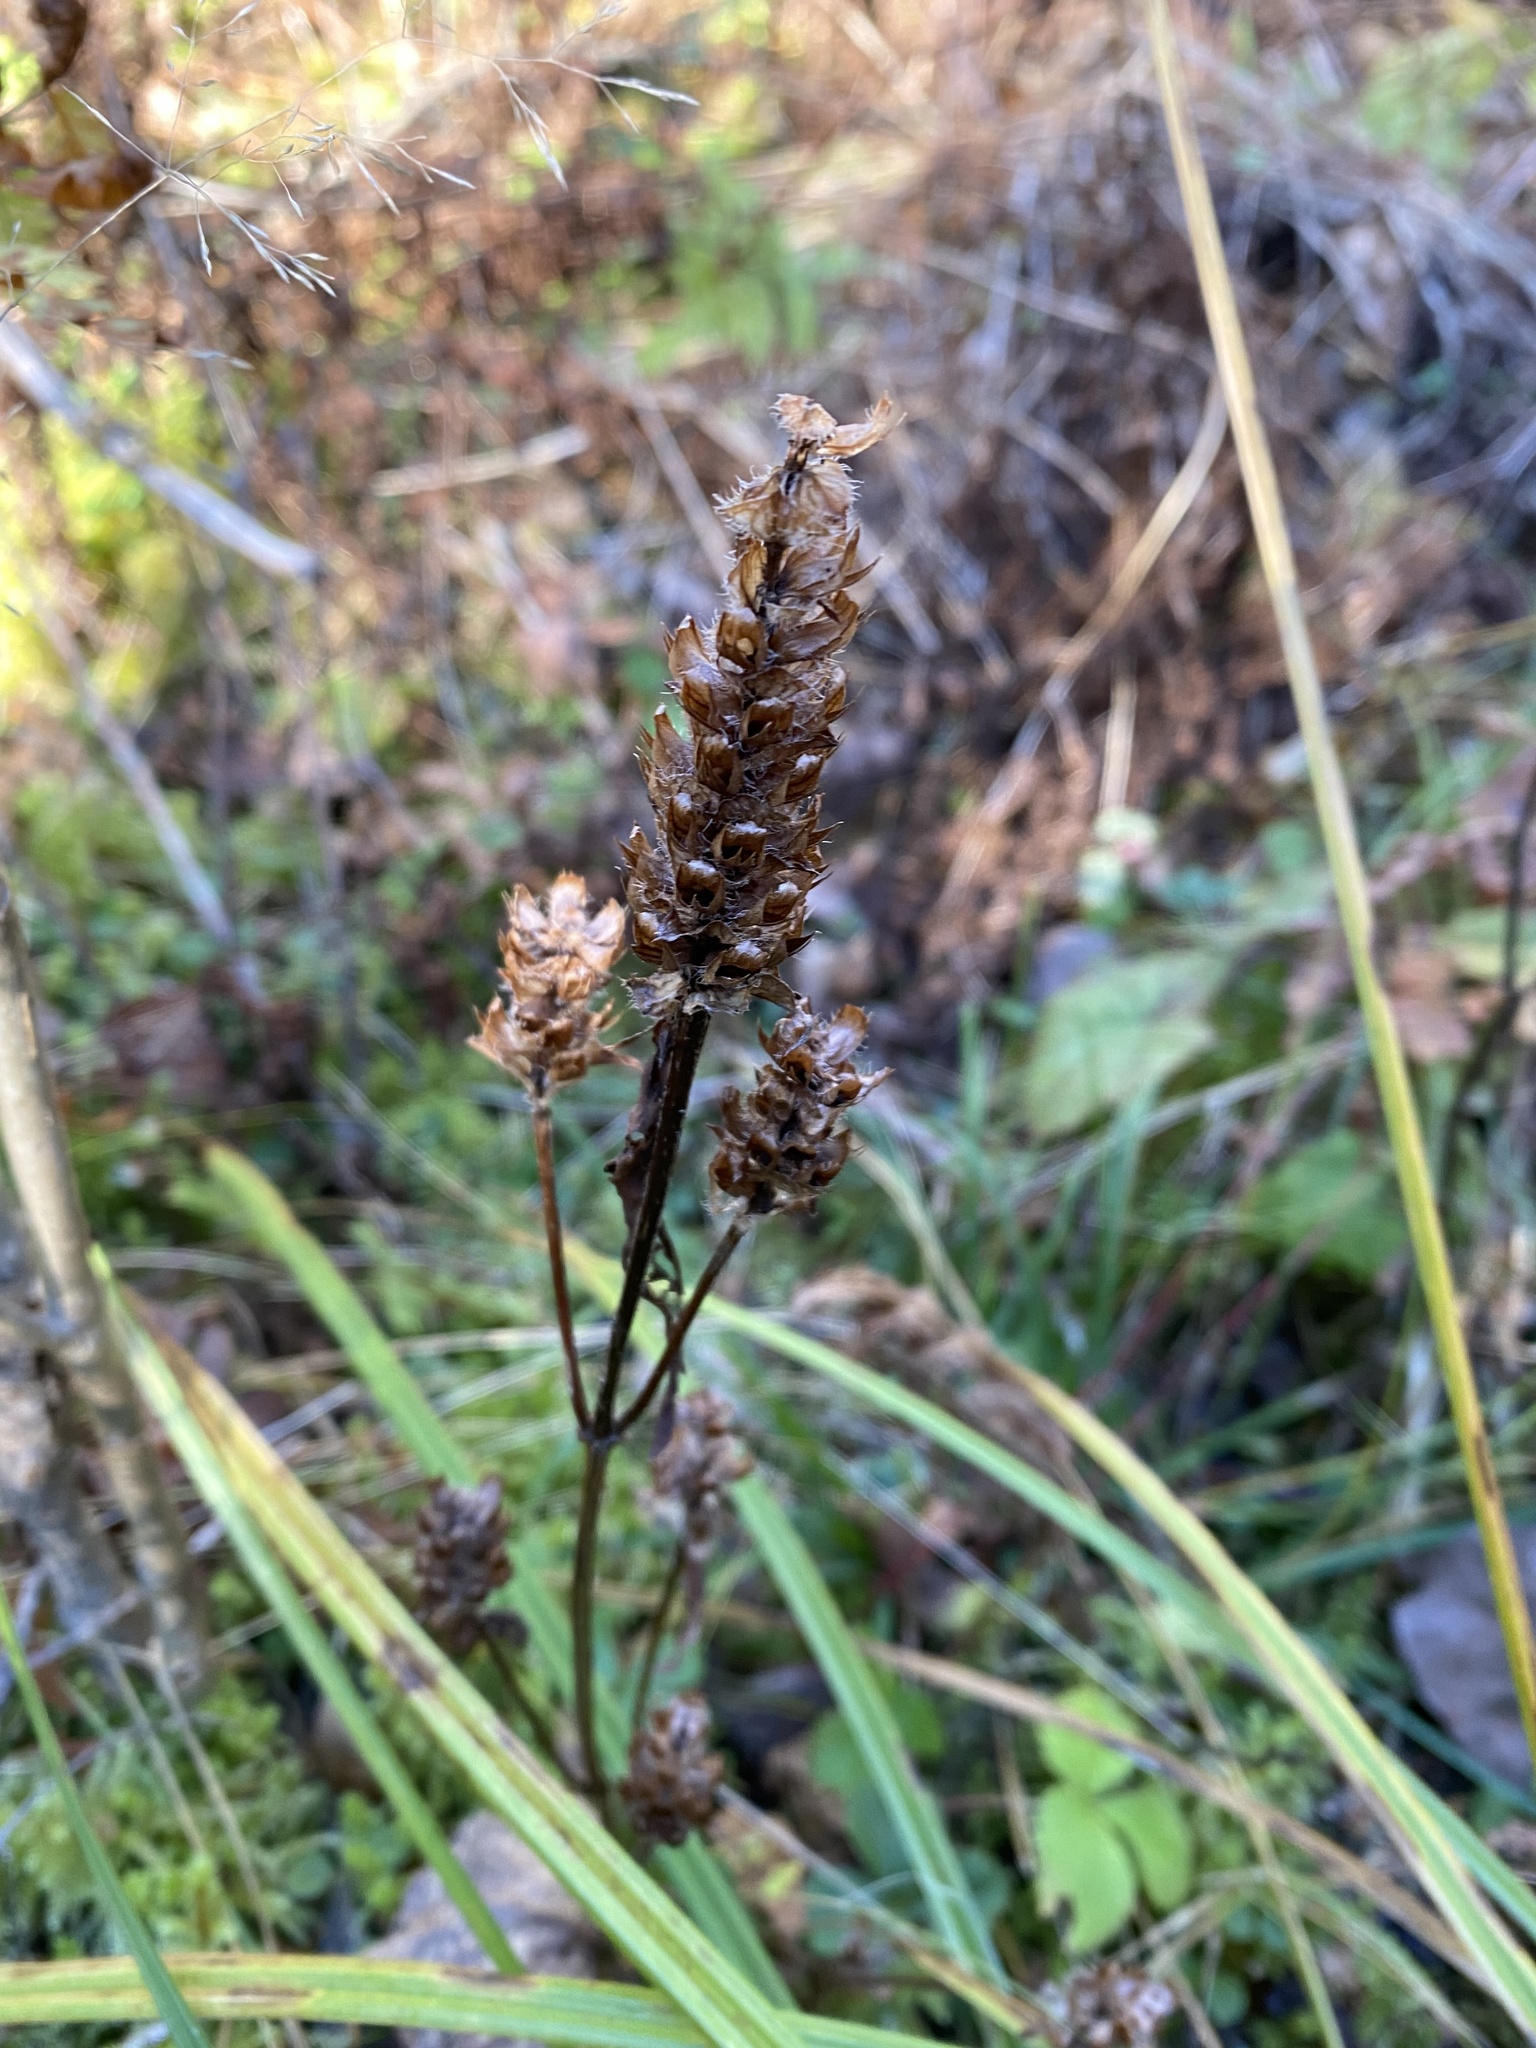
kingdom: Plantae
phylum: Tracheophyta
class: Magnoliopsida
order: Lamiales
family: Lamiaceae
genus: Prunella
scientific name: Prunella vulgaris
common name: Heal-all
